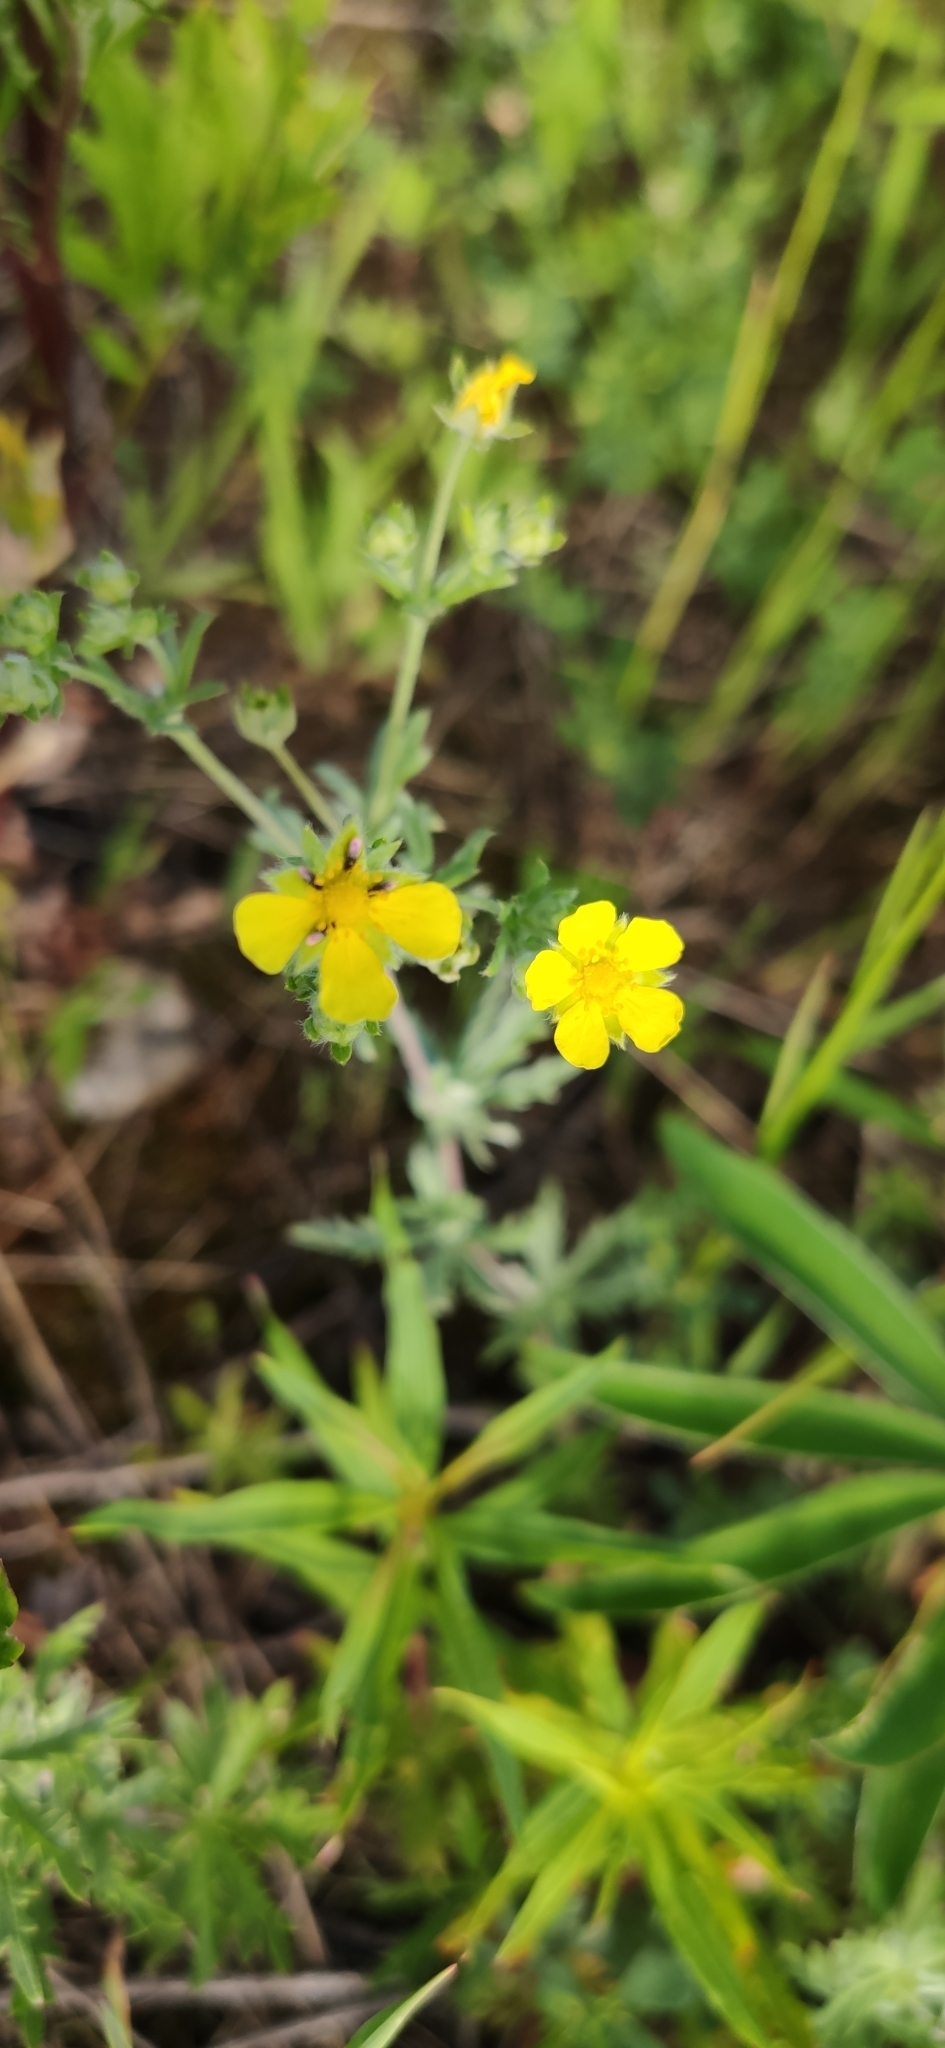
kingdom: Plantae
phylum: Tracheophyta
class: Magnoliopsida
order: Rosales
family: Rosaceae
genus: Potentilla
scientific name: Potentilla argentea
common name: Hoary cinquefoil
